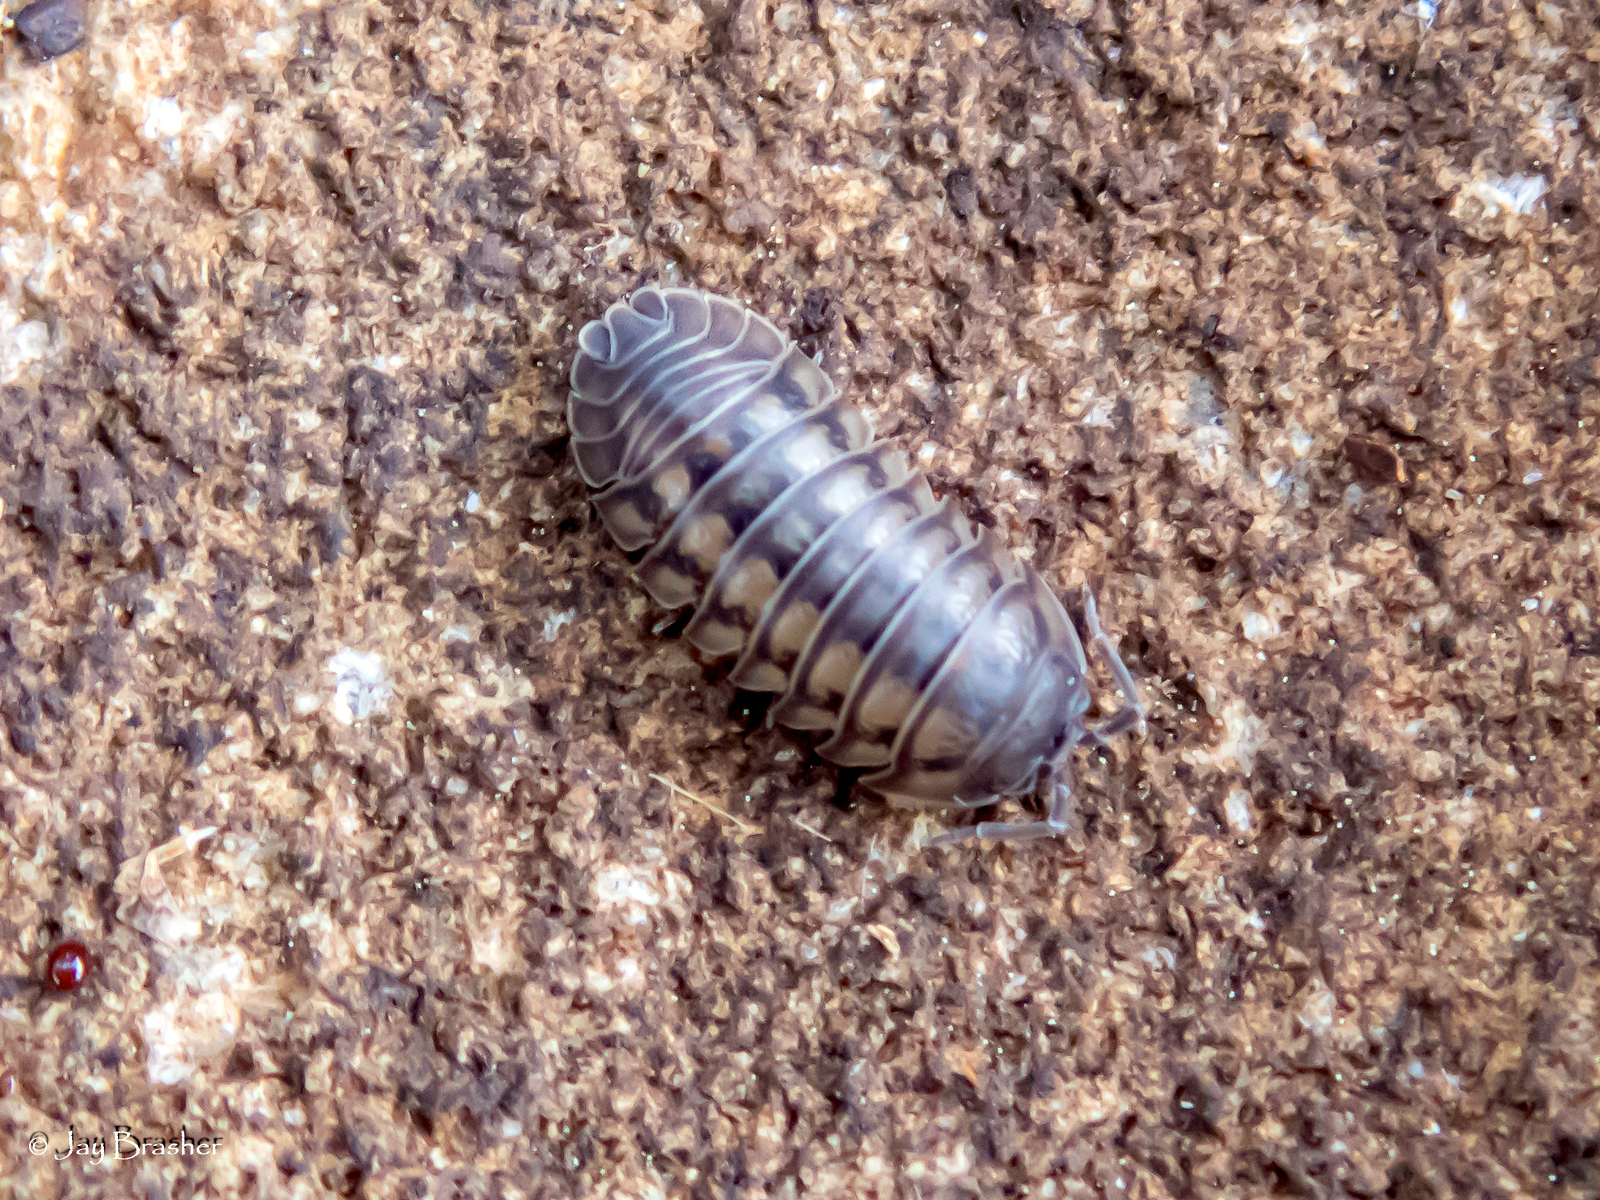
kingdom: Animalia
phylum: Arthropoda
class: Malacostraca
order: Isopoda
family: Armadillidiidae
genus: Armadillidium
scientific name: Armadillidium nasatum
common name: Isopod
